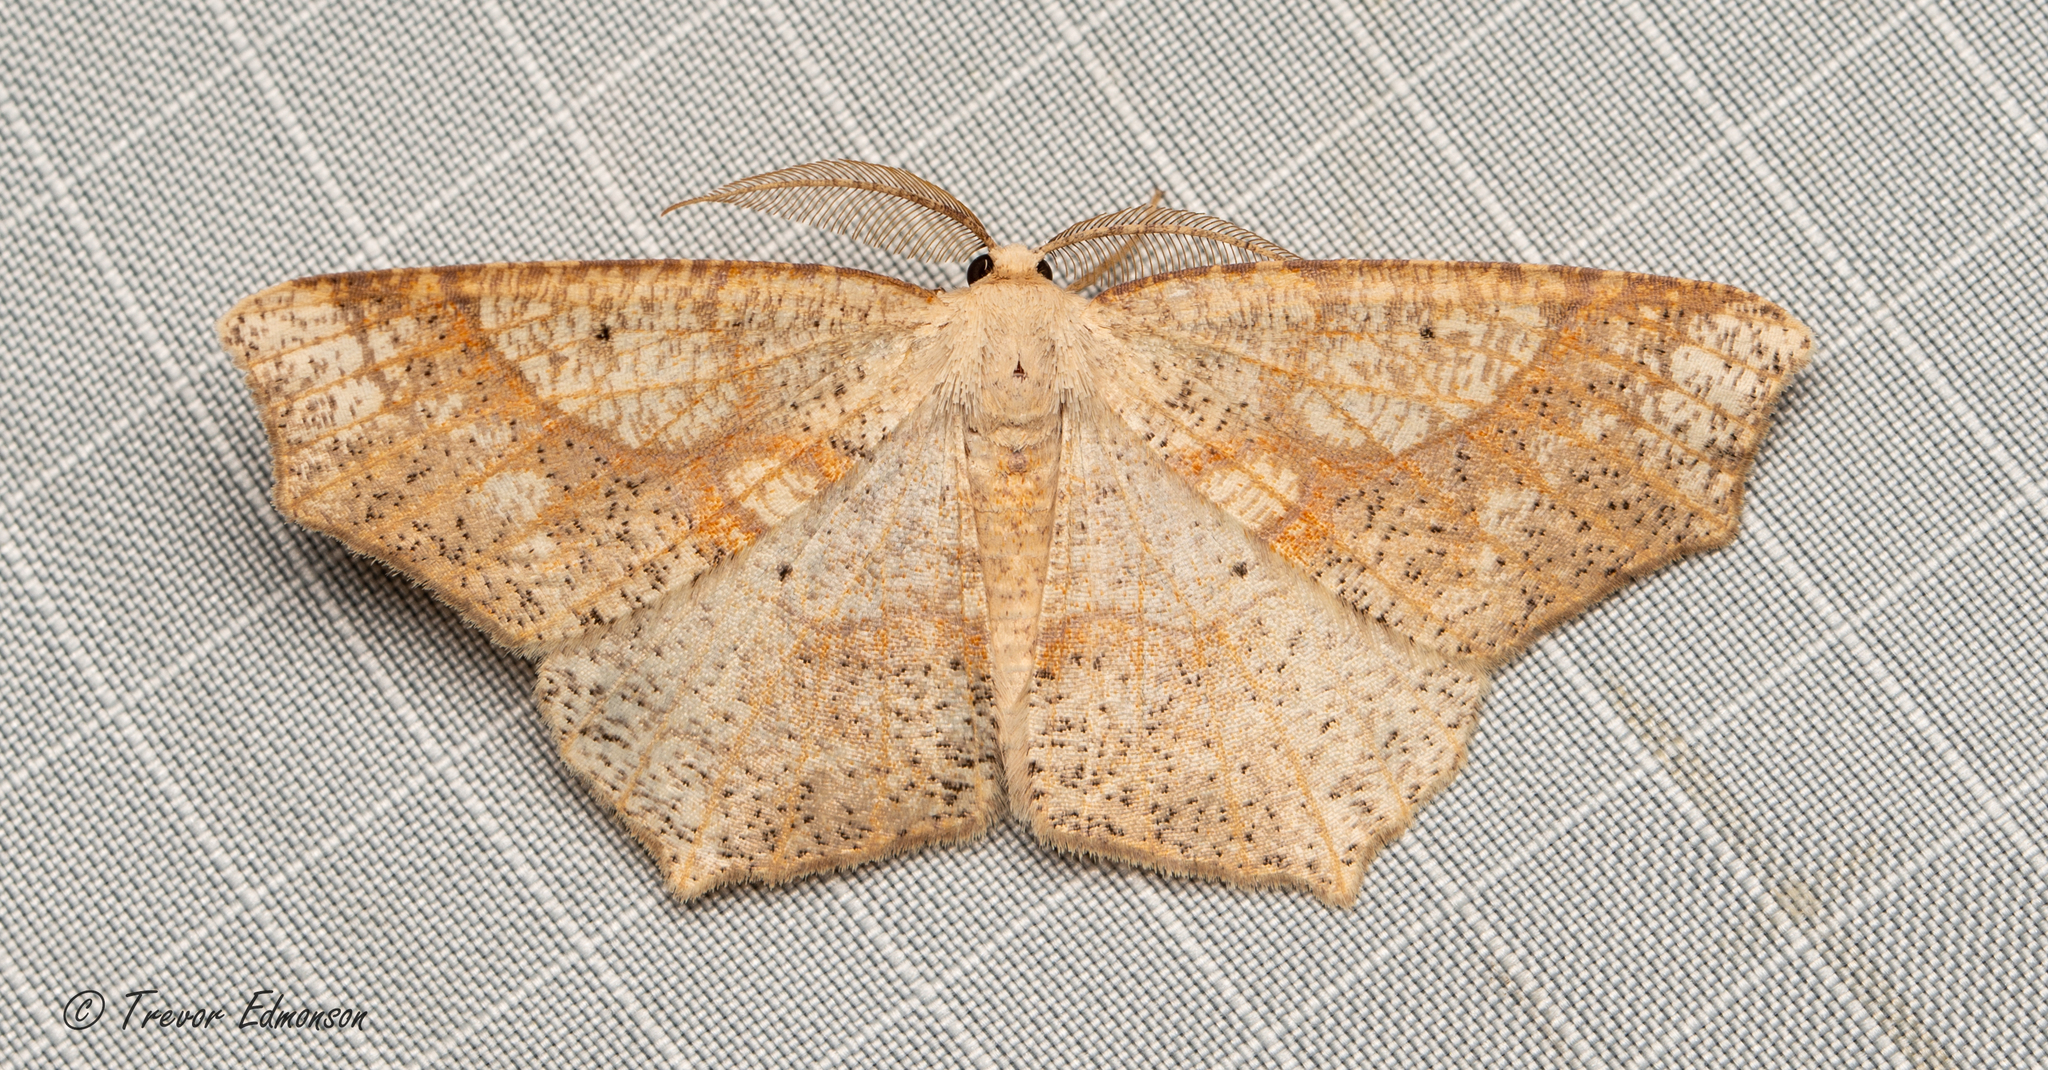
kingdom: Animalia
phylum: Arthropoda
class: Insecta
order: Lepidoptera
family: Geometridae
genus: Besma
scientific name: Besma quercivoraria
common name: Oak besma
